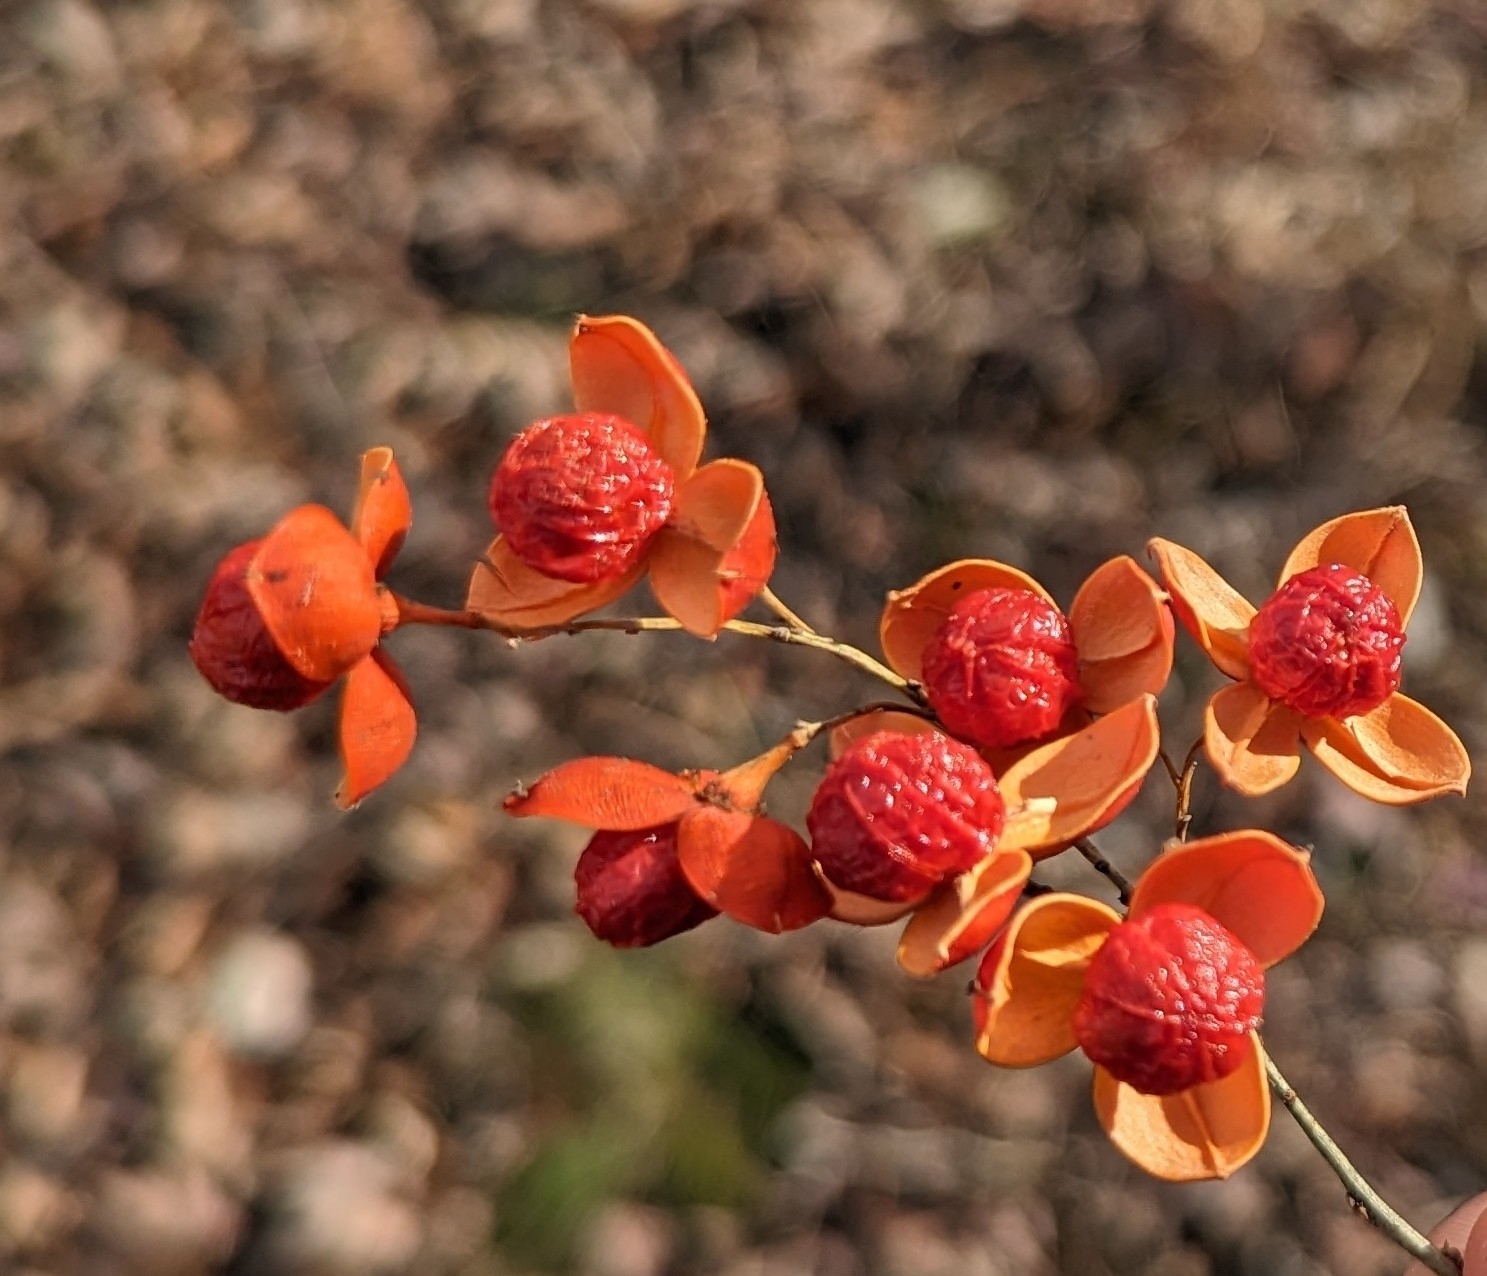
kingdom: Plantae
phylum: Tracheophyta
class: Magnoliopsida
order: Celastrales
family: Celastraceae
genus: Celastrus
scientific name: Celastrus scandens
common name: American bittersweet
